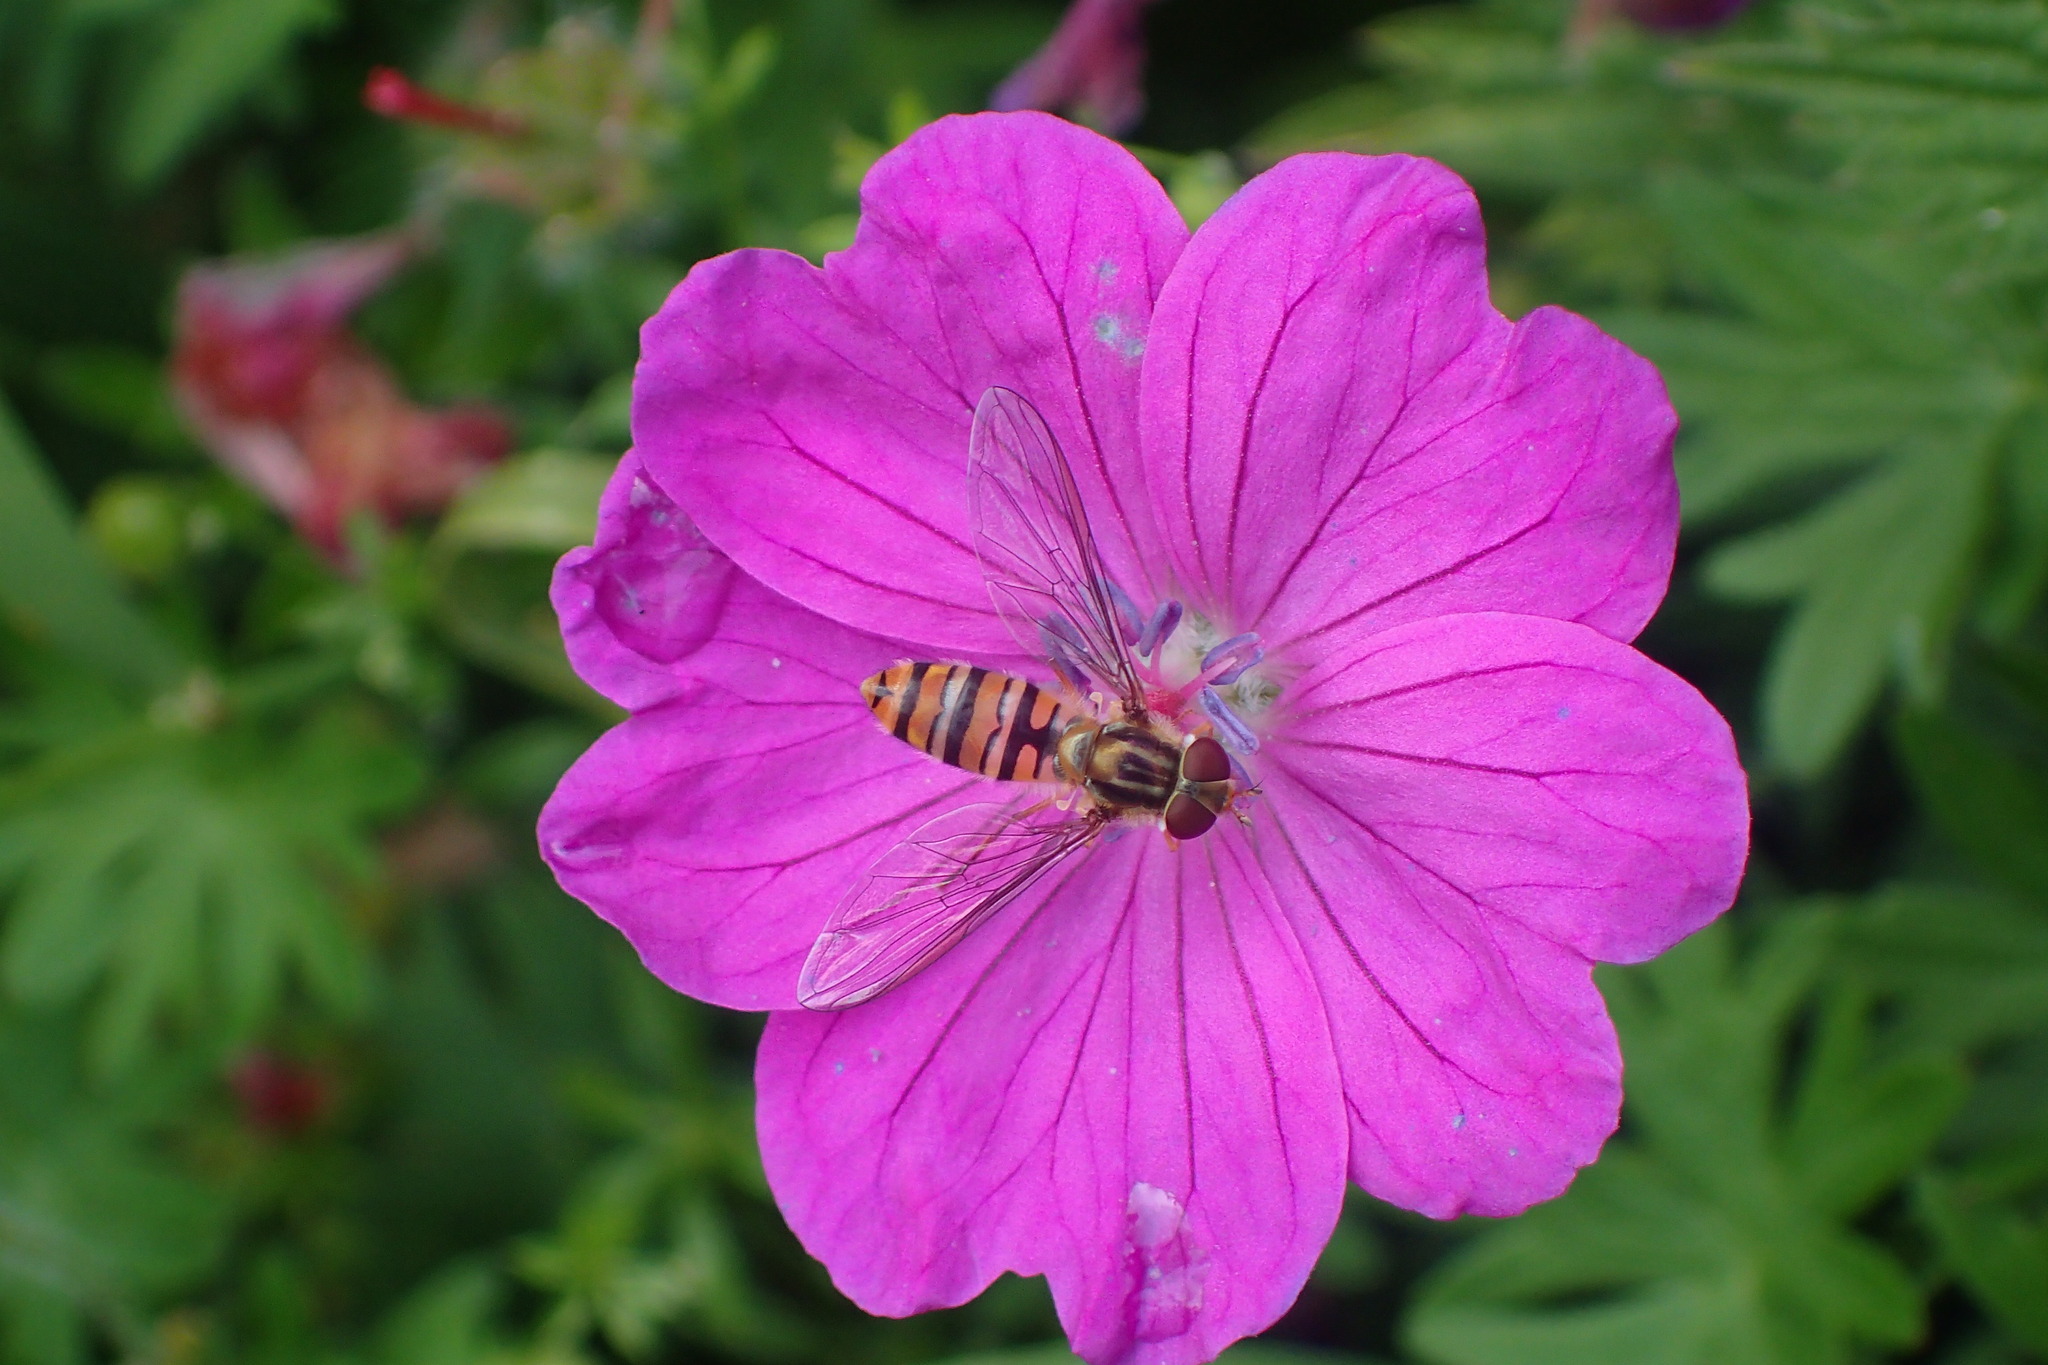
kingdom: Animalia
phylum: Arthropoda
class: Insecta
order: Diptera
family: Syrphidae
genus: Episyrphus
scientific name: Episyrphus balteatus
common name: Marmalade hoverfly
